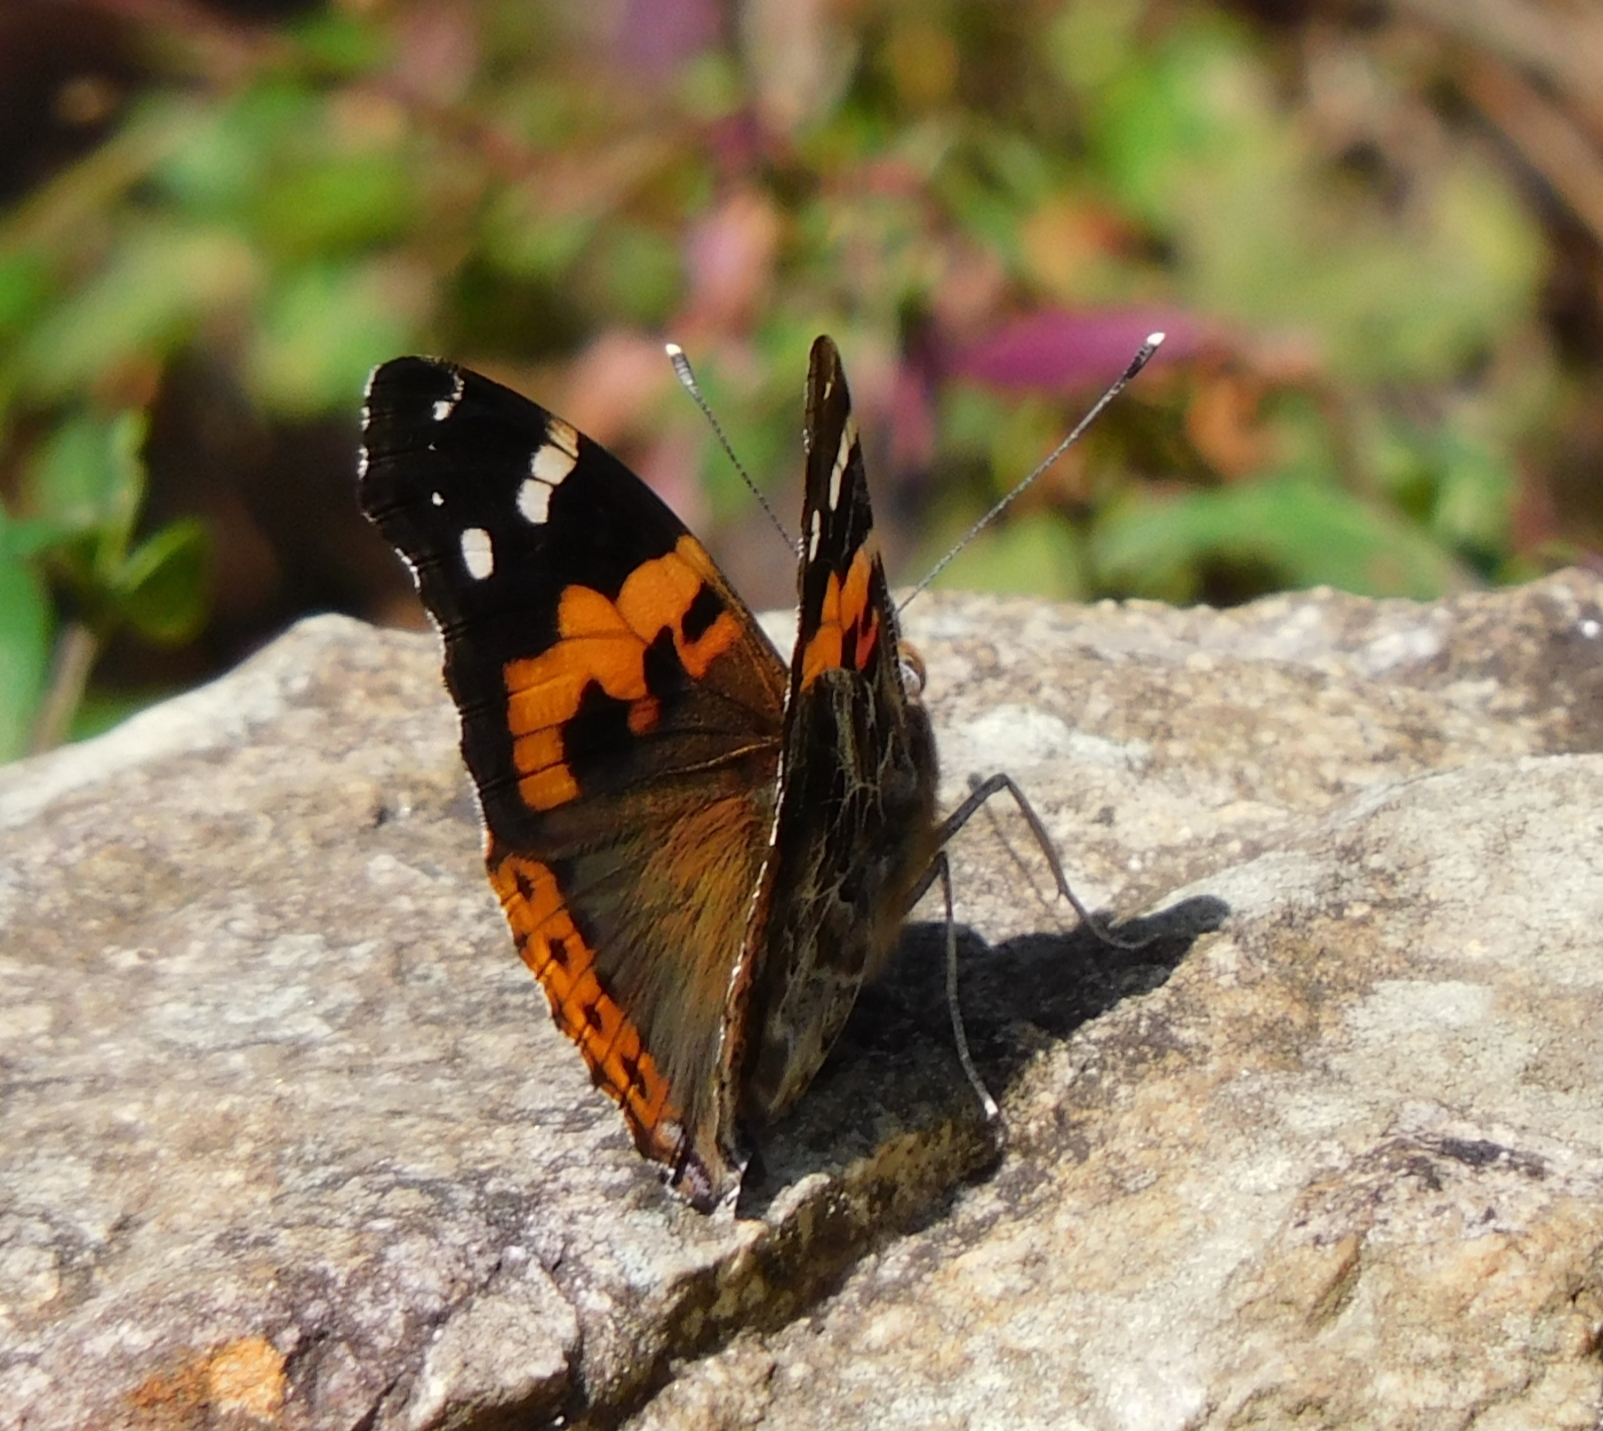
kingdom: Animalia
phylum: Arthropoda
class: Insecta
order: Lepidoptera
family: Nymphalidae
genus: Vanessa
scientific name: Vanessa indica
